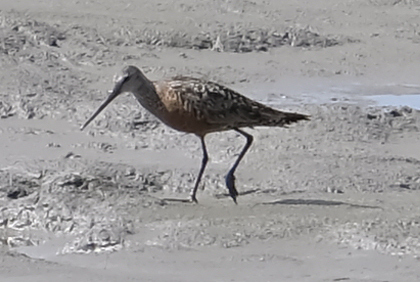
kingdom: Animalia
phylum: Chordata
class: Aves
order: Charadriiformes
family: Scolopacidae
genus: Limosa
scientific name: Limosa haemastica
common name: Hudsonian godwit
